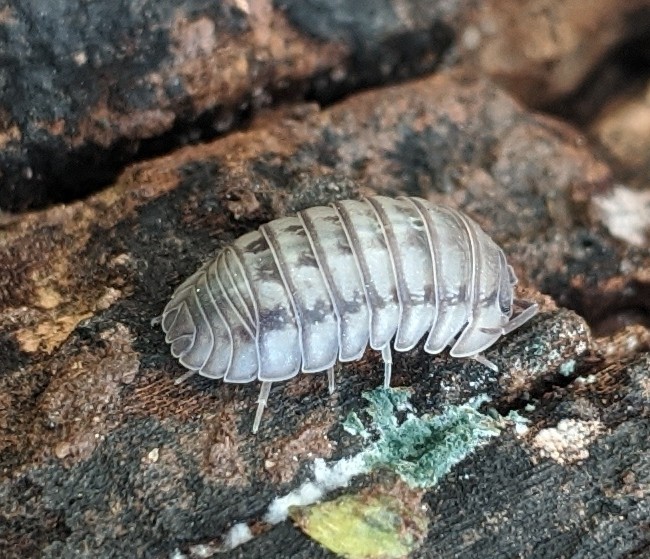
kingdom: Animalia
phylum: Arthropoda
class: Malacostraca
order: Isopoda
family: Armadillidiidae
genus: Armadillidium
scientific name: Armadillidium nasatum
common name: Isopod
